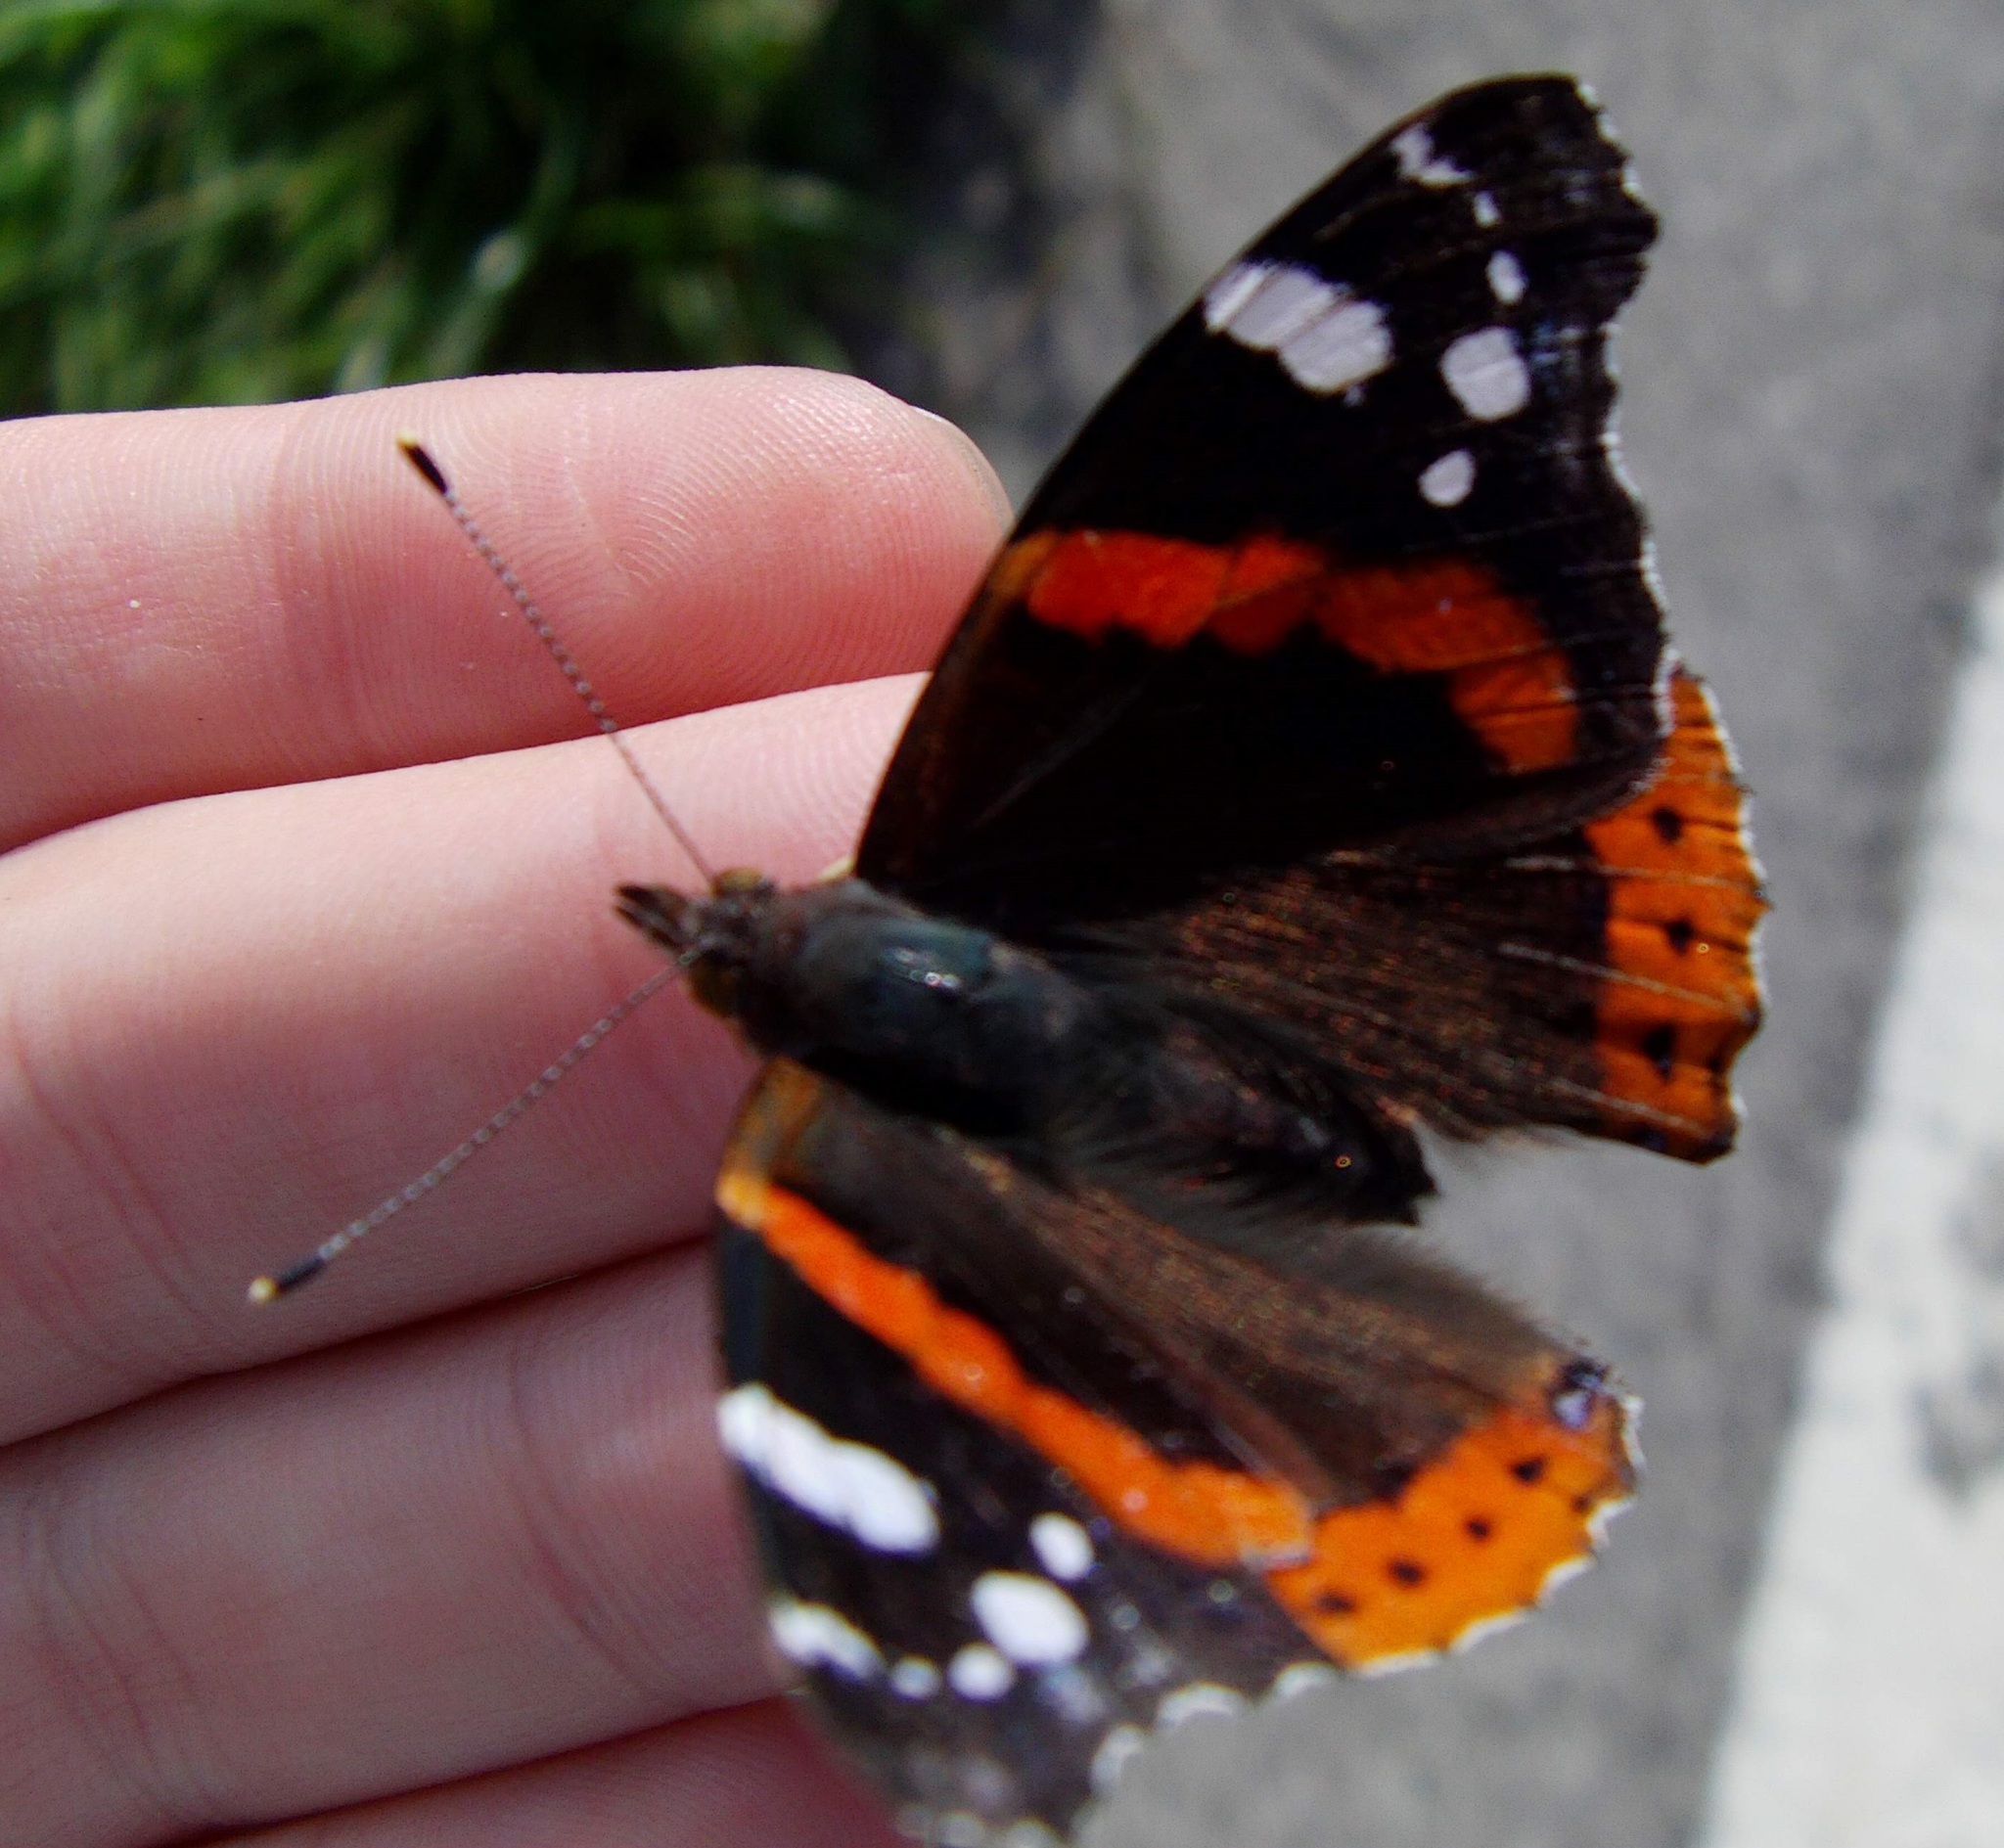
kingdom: Animalia
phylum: Arthropoda
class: Insecta
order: Lepidoptera
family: Nymphalidae
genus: Vanessa
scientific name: Vanessa atalanta
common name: Red admiral
